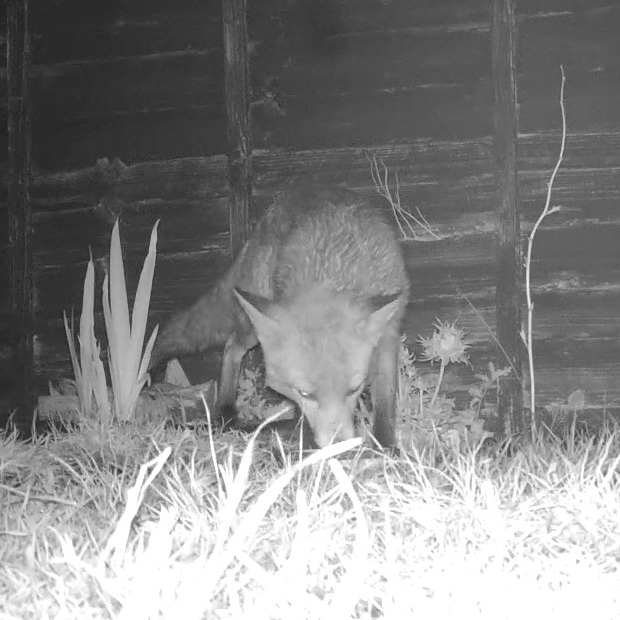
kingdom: Animalia
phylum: Chordata
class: Mammalia
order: Carnivora
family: Canidae
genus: Vulpes
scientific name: Vulpes vulpes
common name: Red fox
